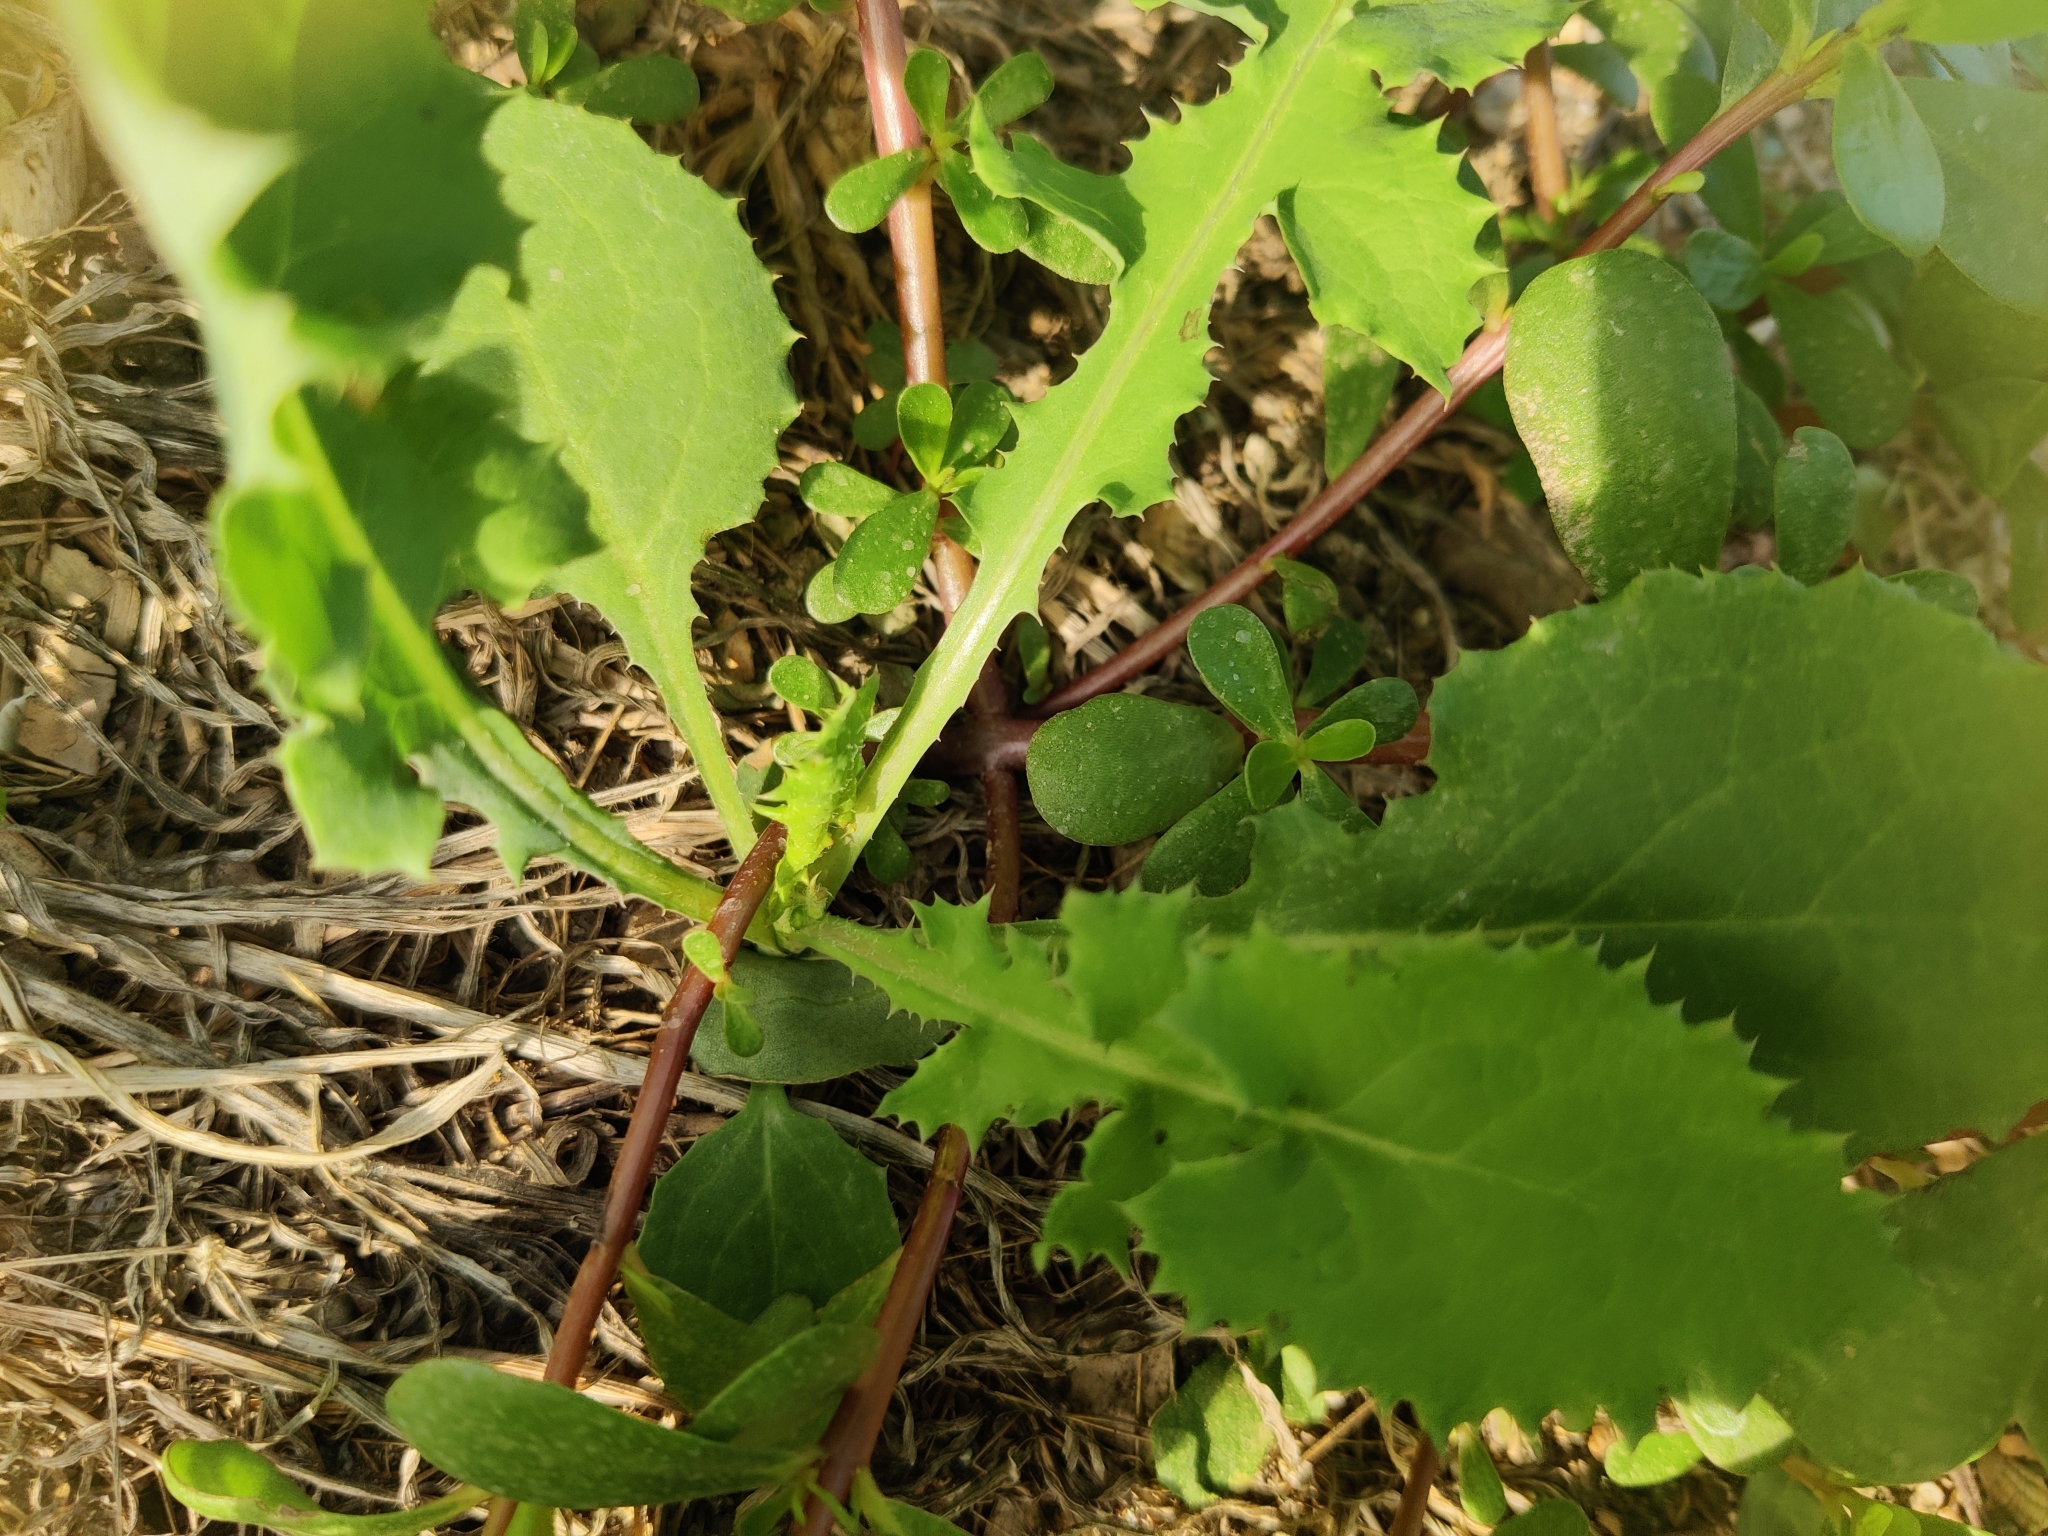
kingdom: Plantae
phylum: Tracheophyta
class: Magnoliopsida
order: Asterales
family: Asteraceae
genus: Sonchus
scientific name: Sonchus oleraceus
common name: Common sowthistle
